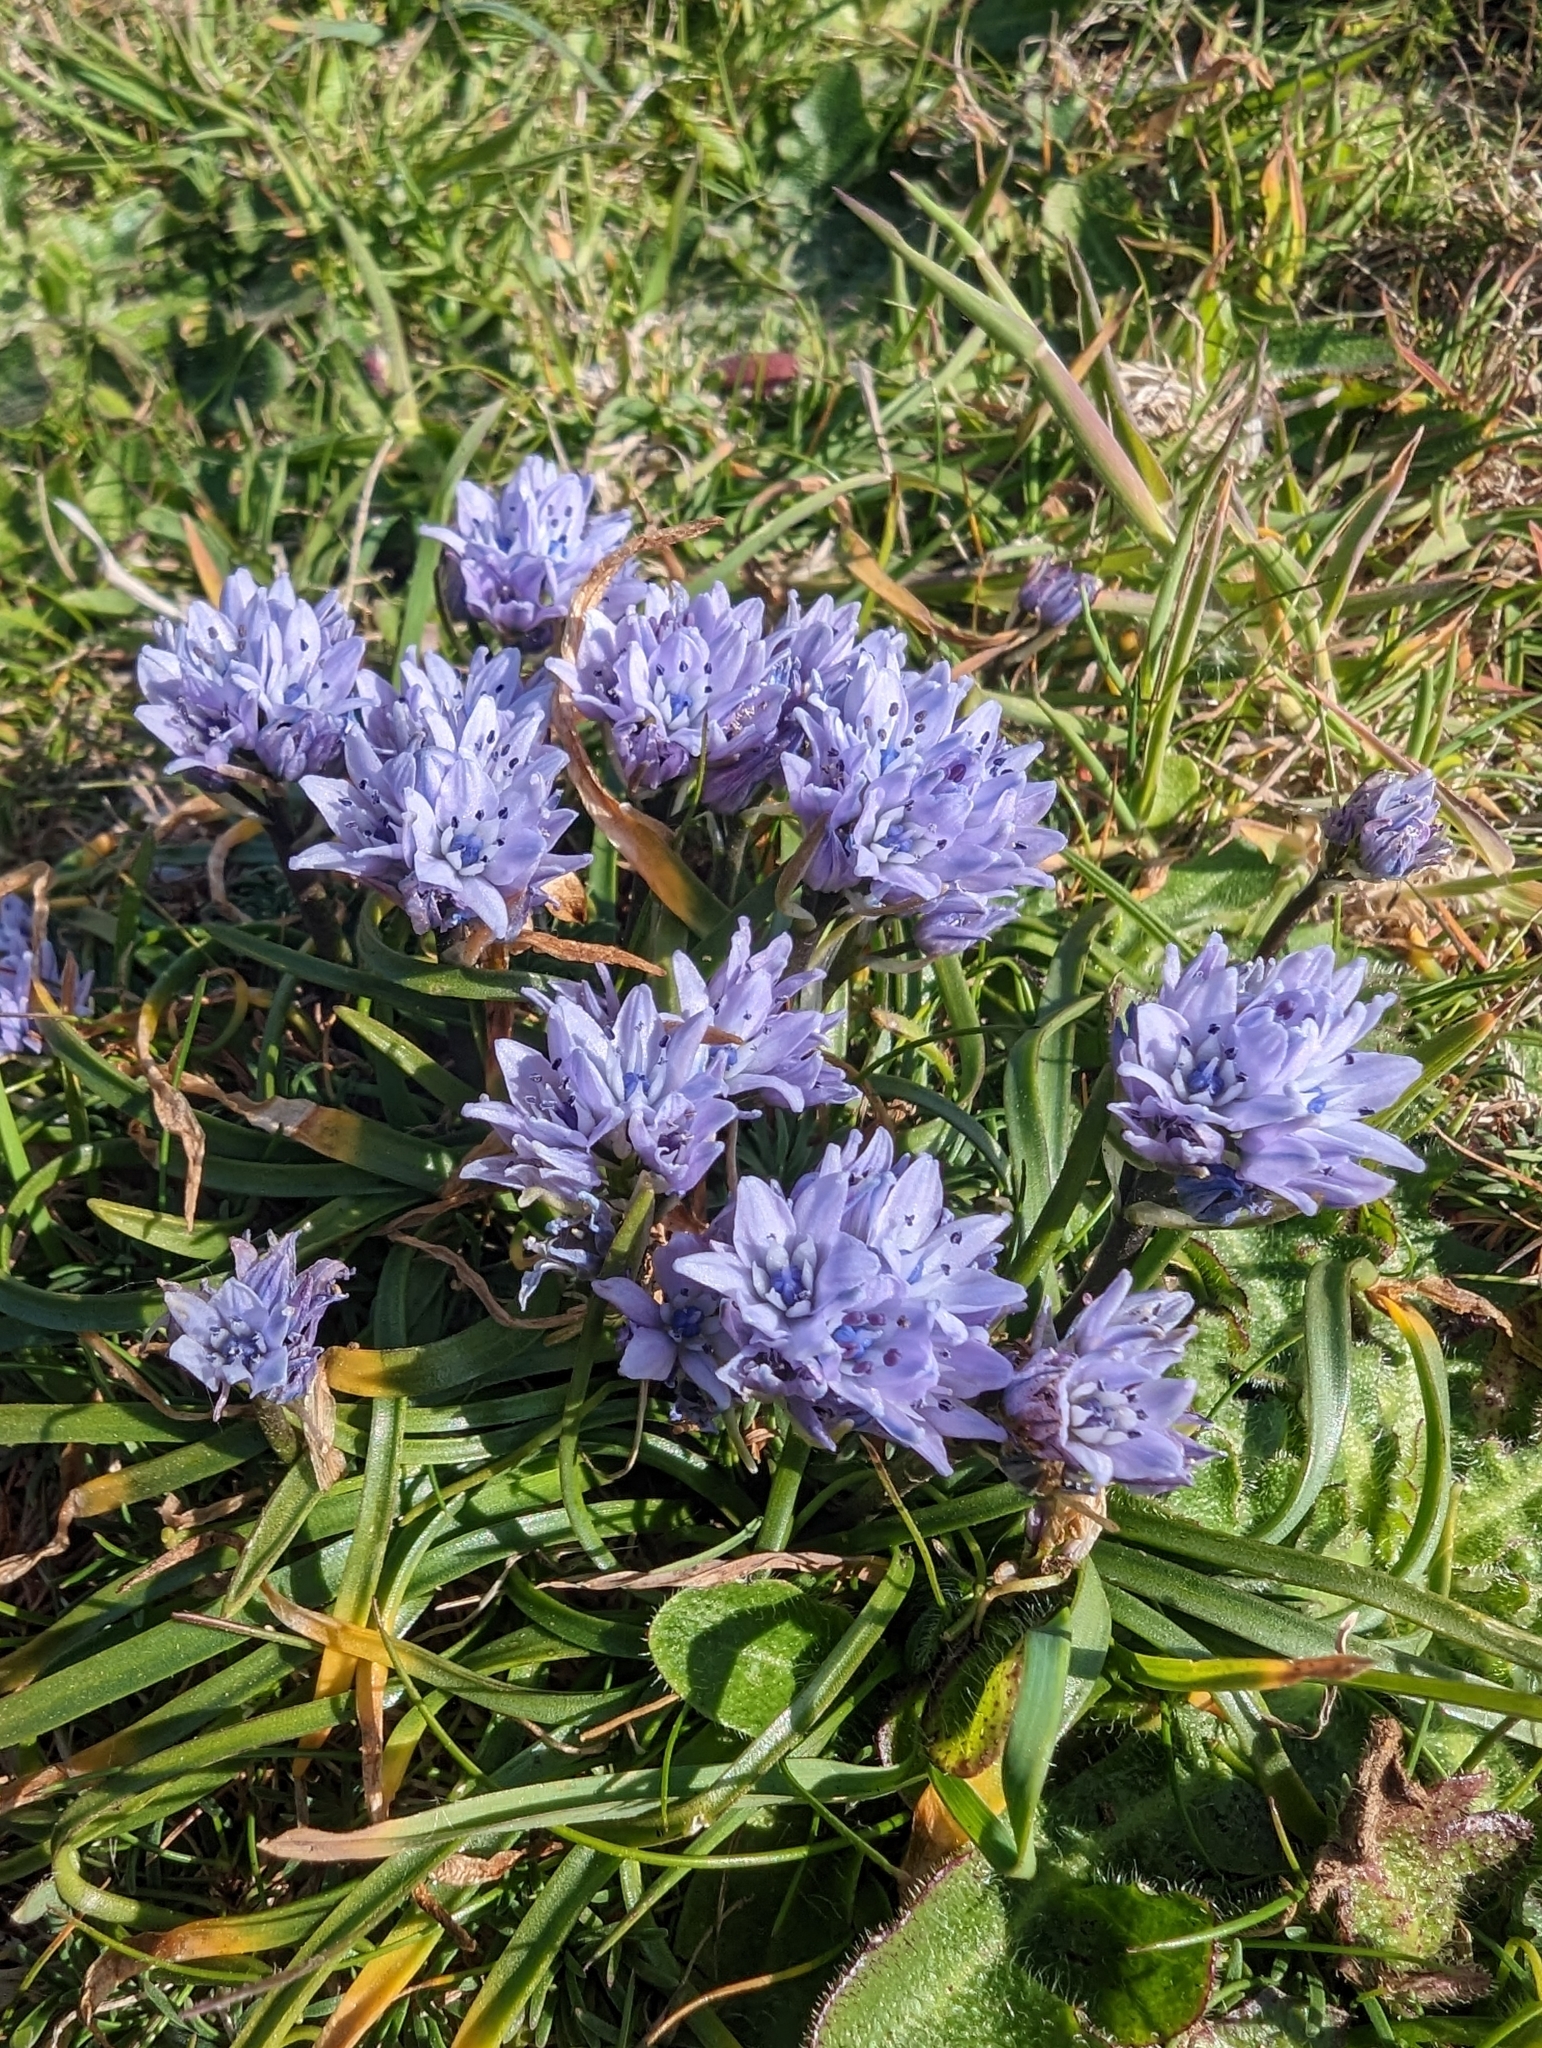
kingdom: Plantae
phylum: Tracheophyta
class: Liliopsida
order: Asparagales
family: Asparagaceae
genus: Scilla
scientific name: Scilla verna
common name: Spring squill
